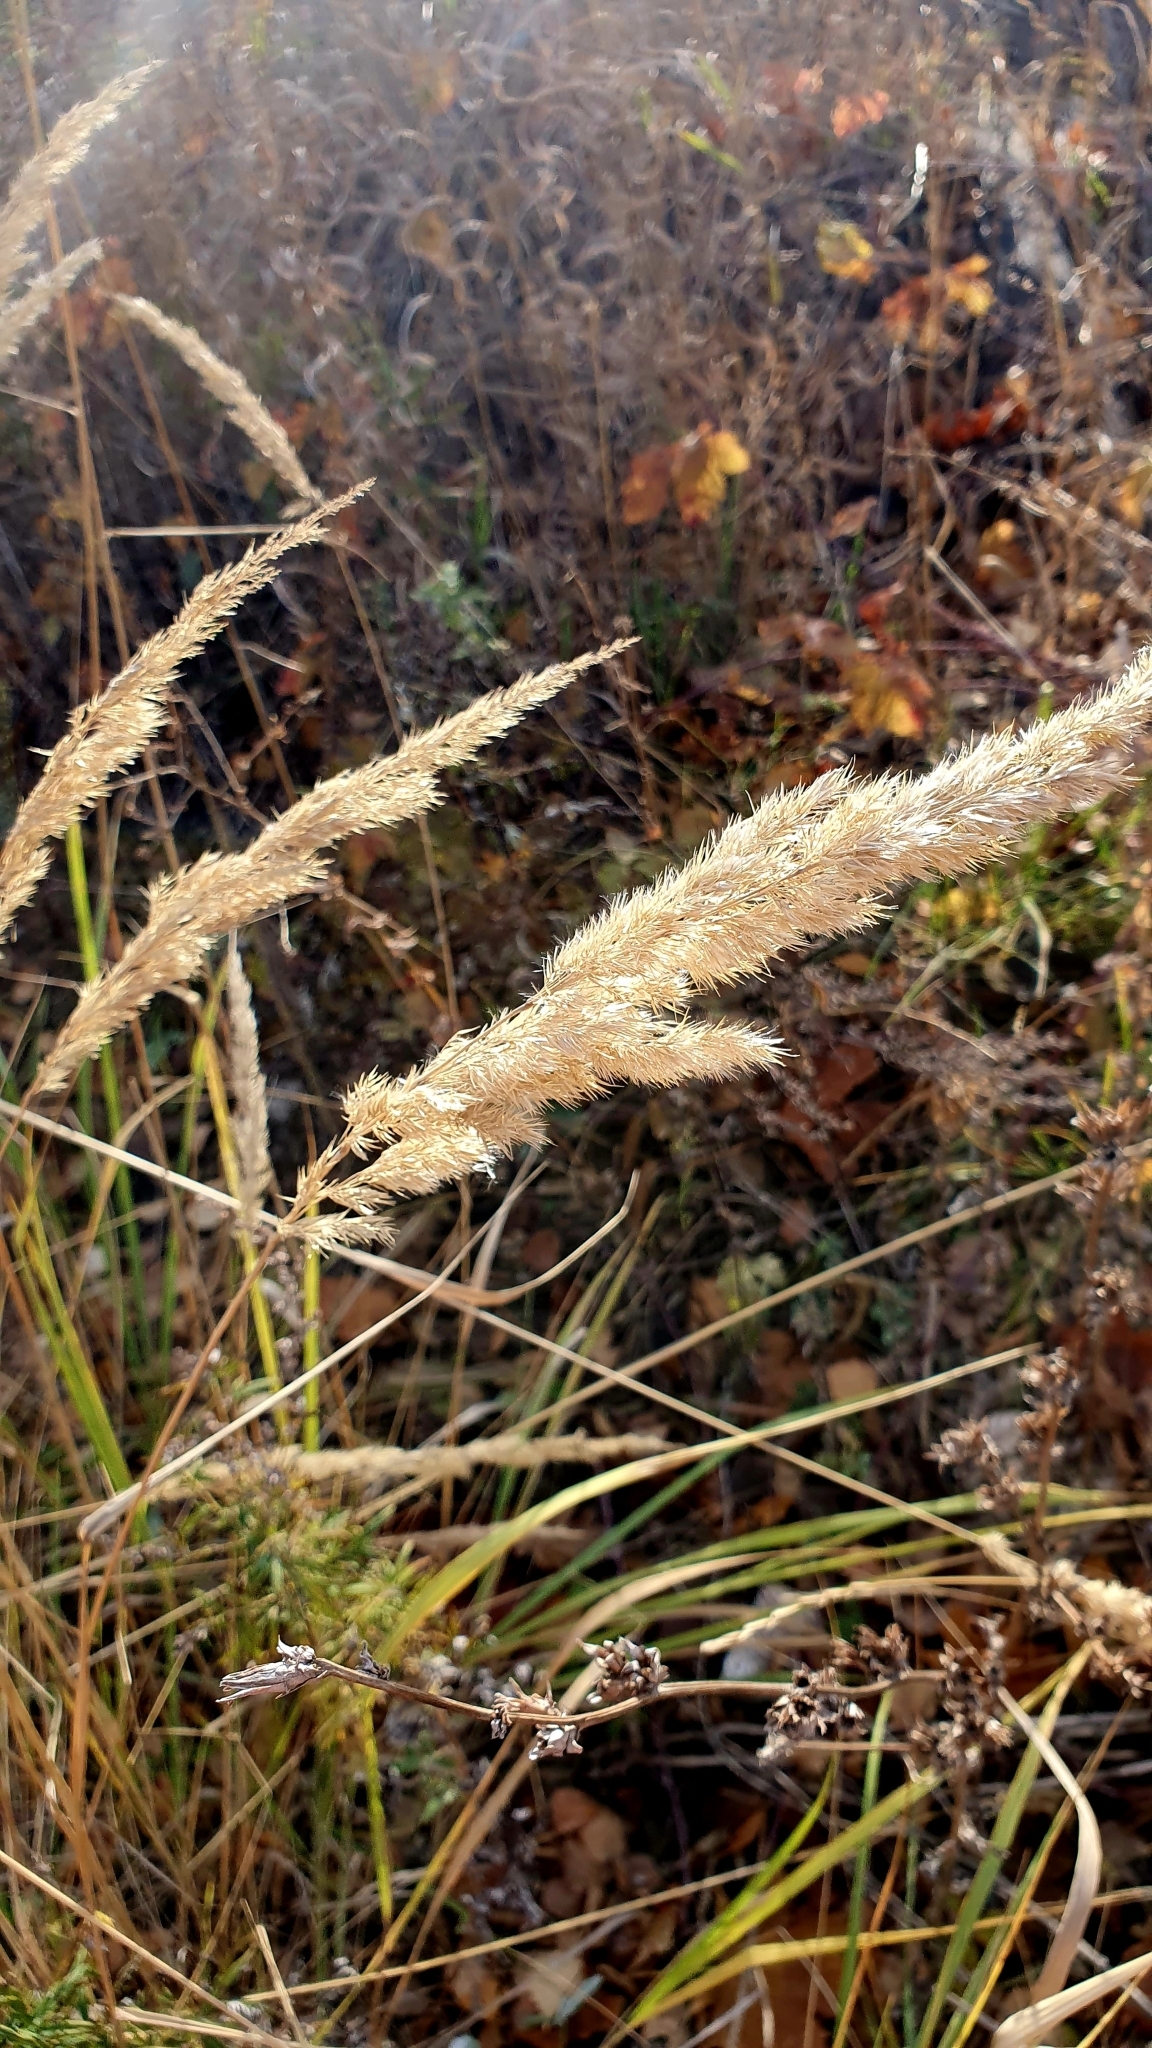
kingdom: Plantae
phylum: Tracheophyta
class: Liliopsida
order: Poales
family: Poaceae
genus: Calamagrostis
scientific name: Calamagrostis epigejos
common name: Wood small-reed
